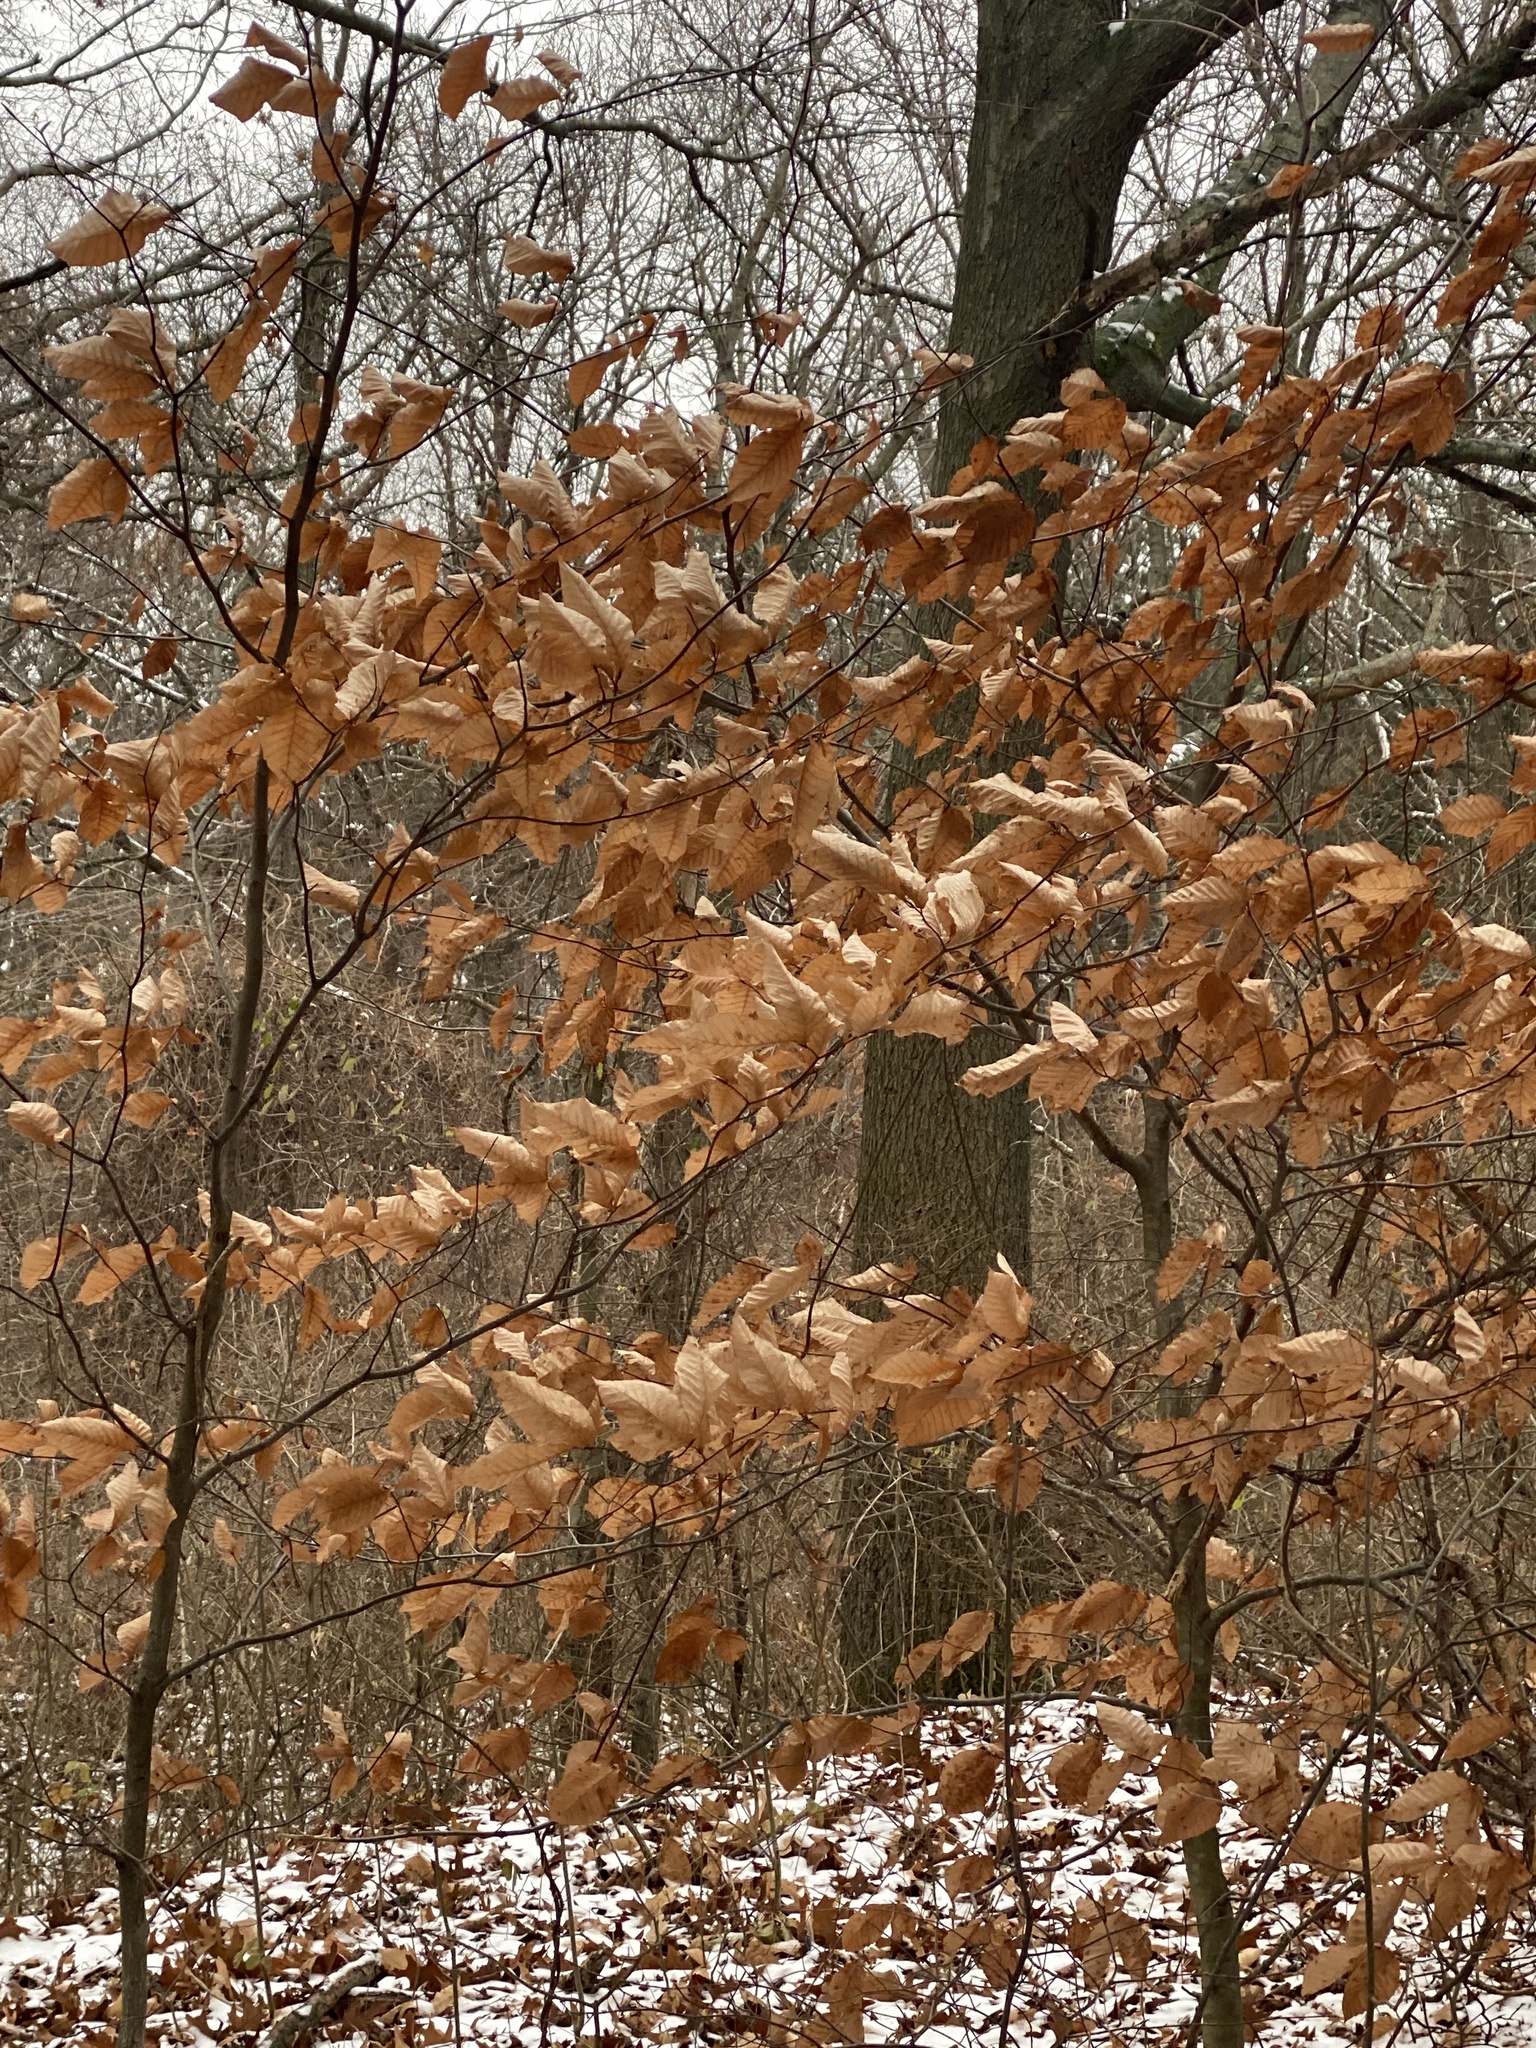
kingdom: Plantae
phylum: Tracheophyta
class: Magnoliopsida
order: Fagales
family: Fagaceae
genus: Fagus
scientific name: Fagus grandifolia
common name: American beech
